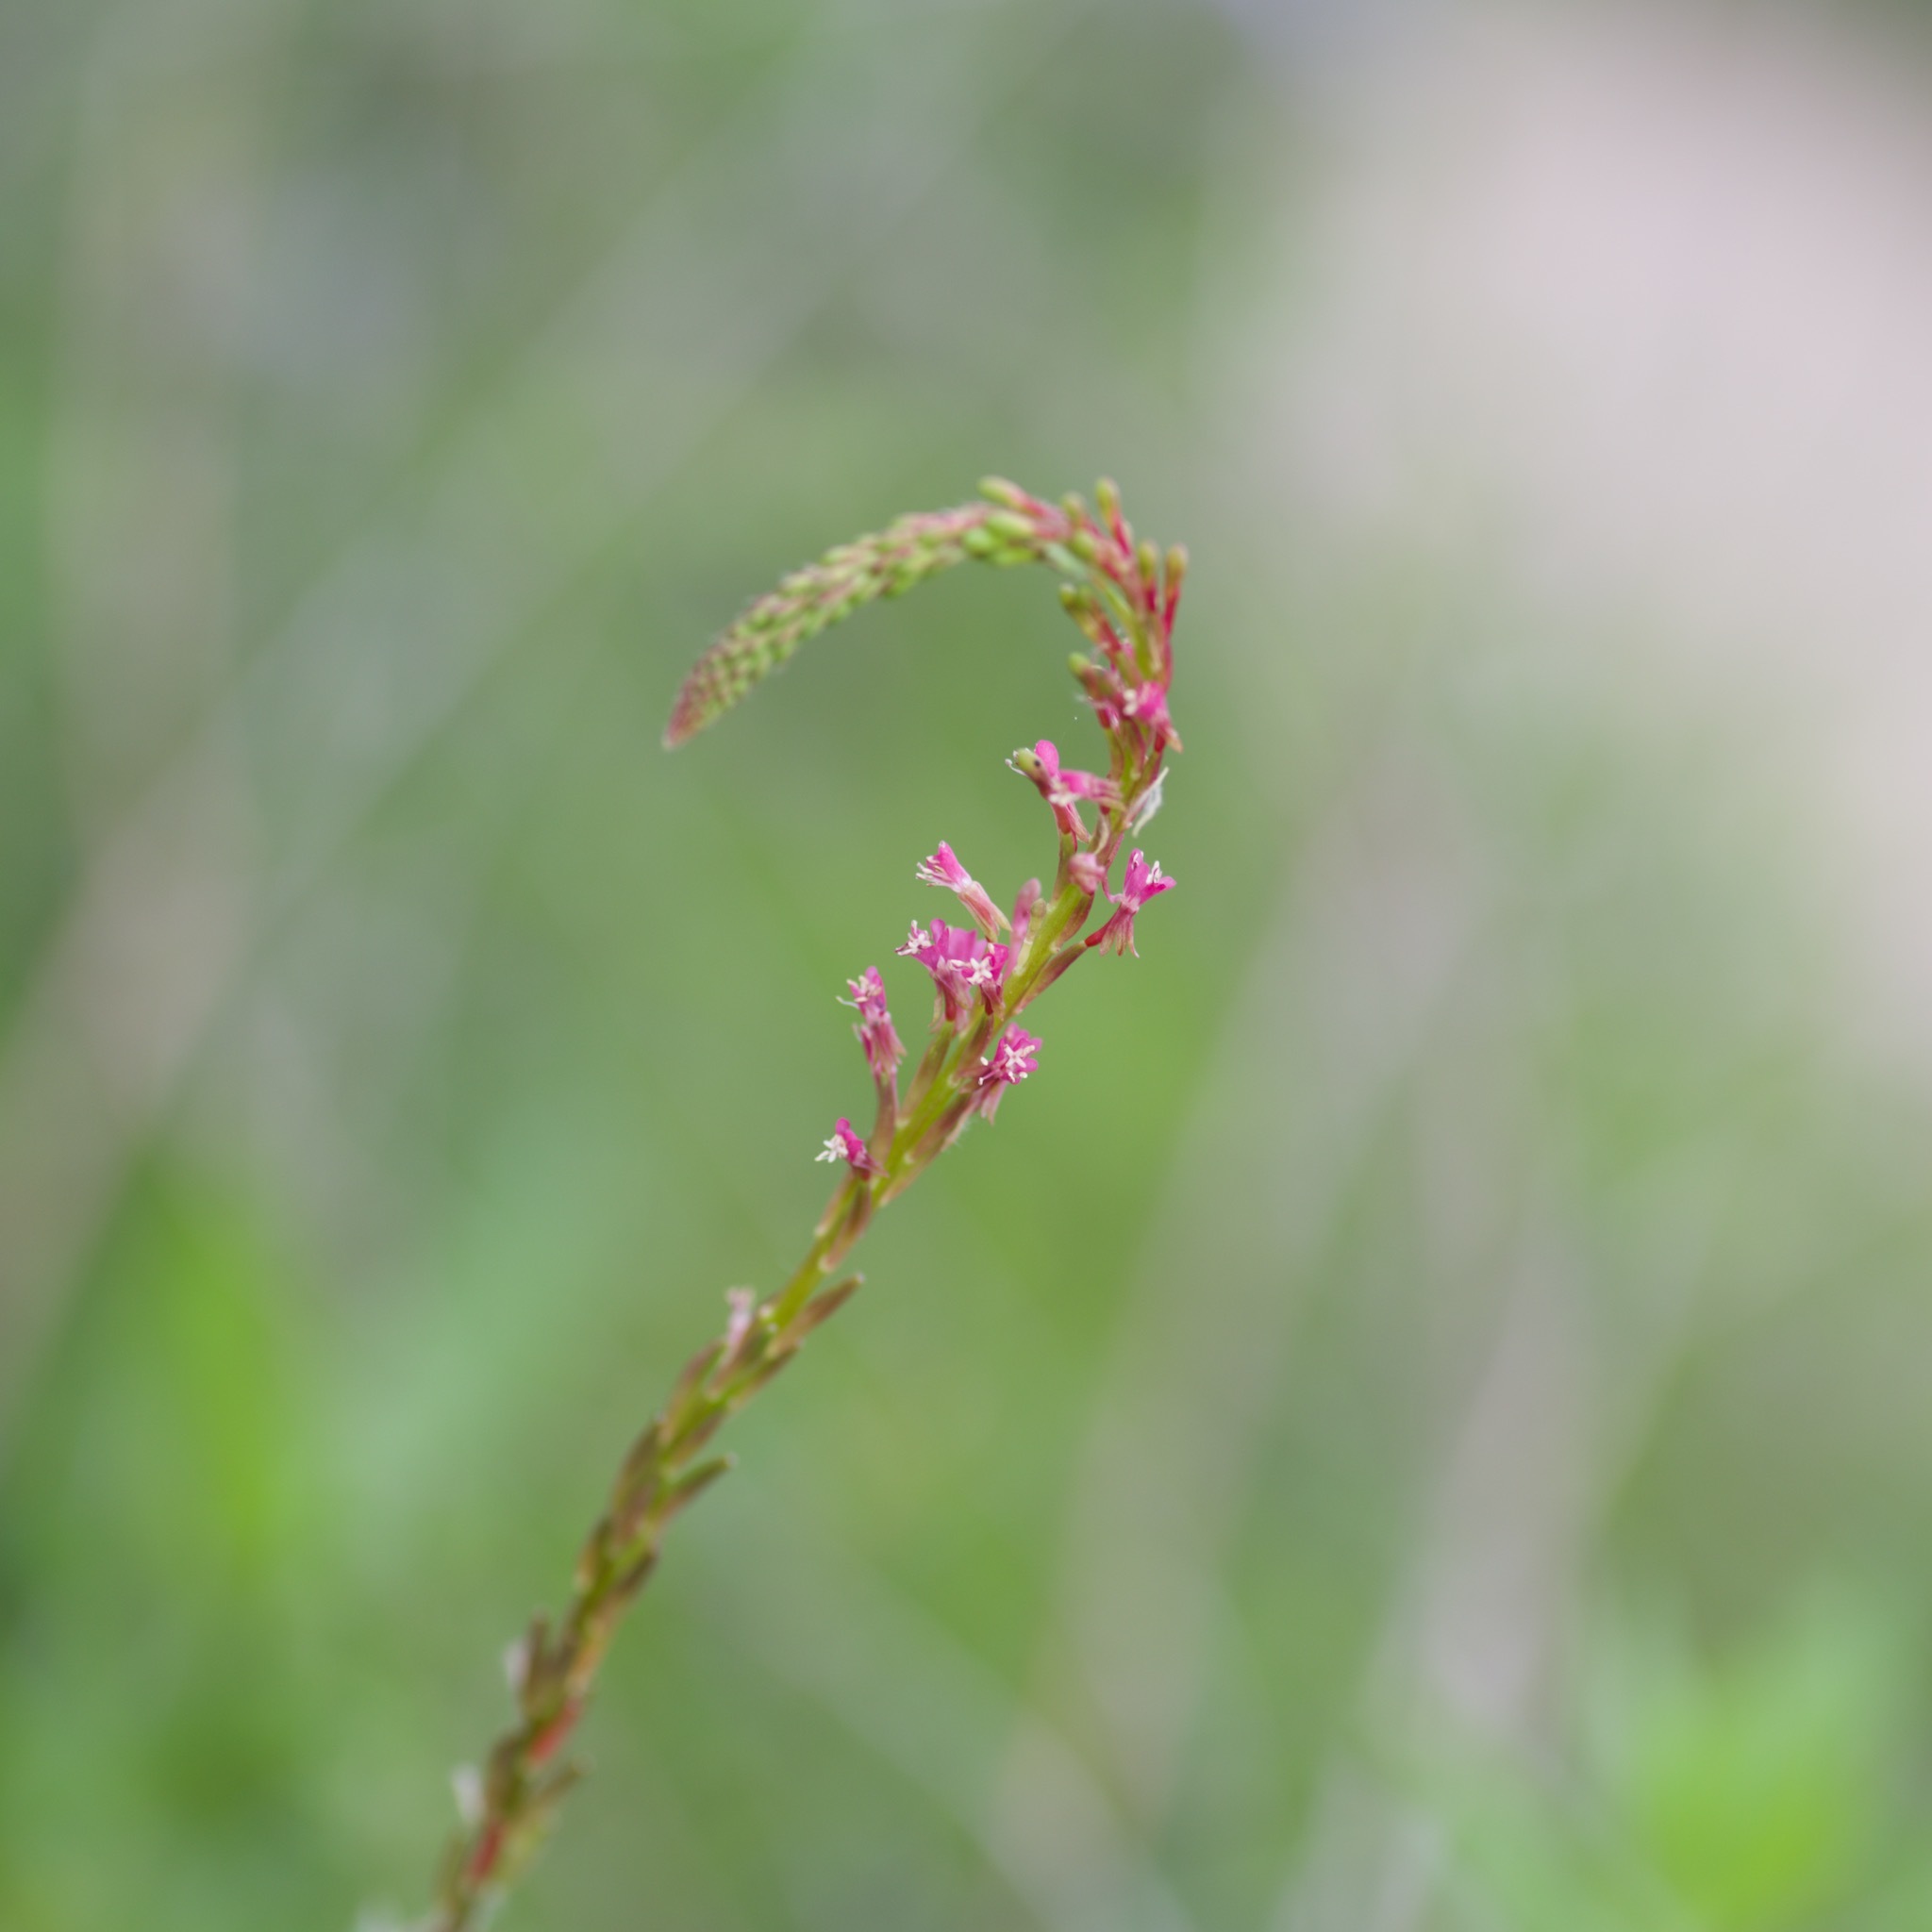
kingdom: Plantae
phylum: Tracheophyta
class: Magnoliopsida
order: Myrtales
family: Onagraceae
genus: Oenothera
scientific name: Oenothera curtiflora
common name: Velvetweed
